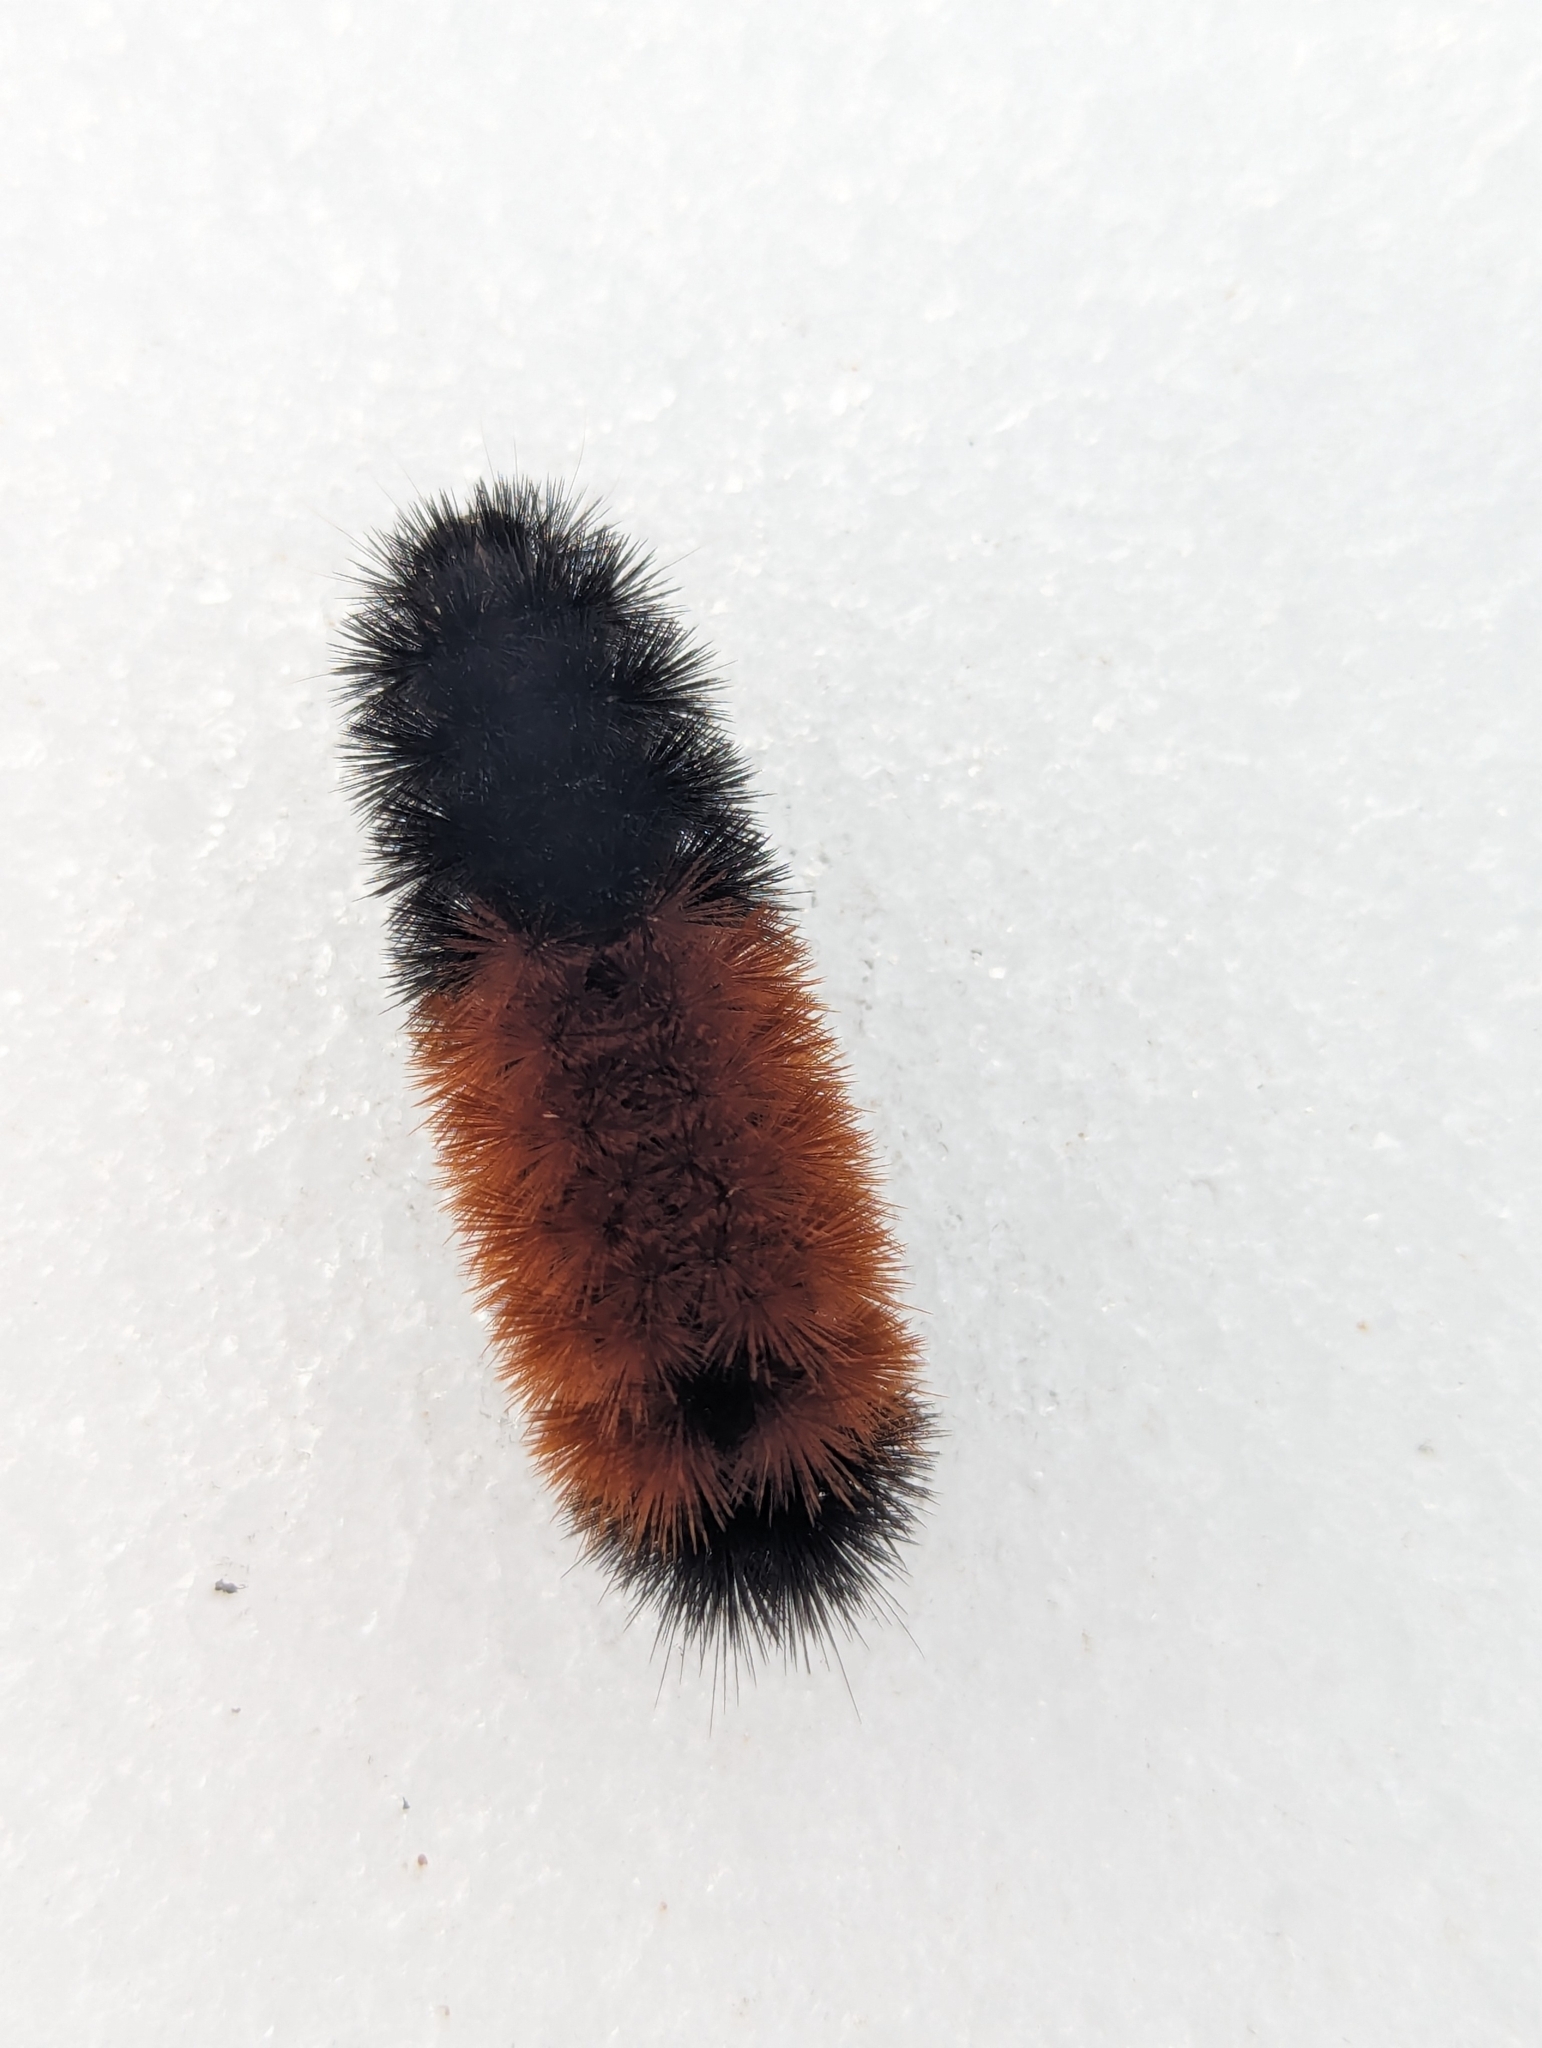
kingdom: Animalia
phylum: Arthropoda
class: Insecta
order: Lepidoptera
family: Erebidae
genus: Pyrrharctia
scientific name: Pyrrharctia isabella
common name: Isabella tiger moth
